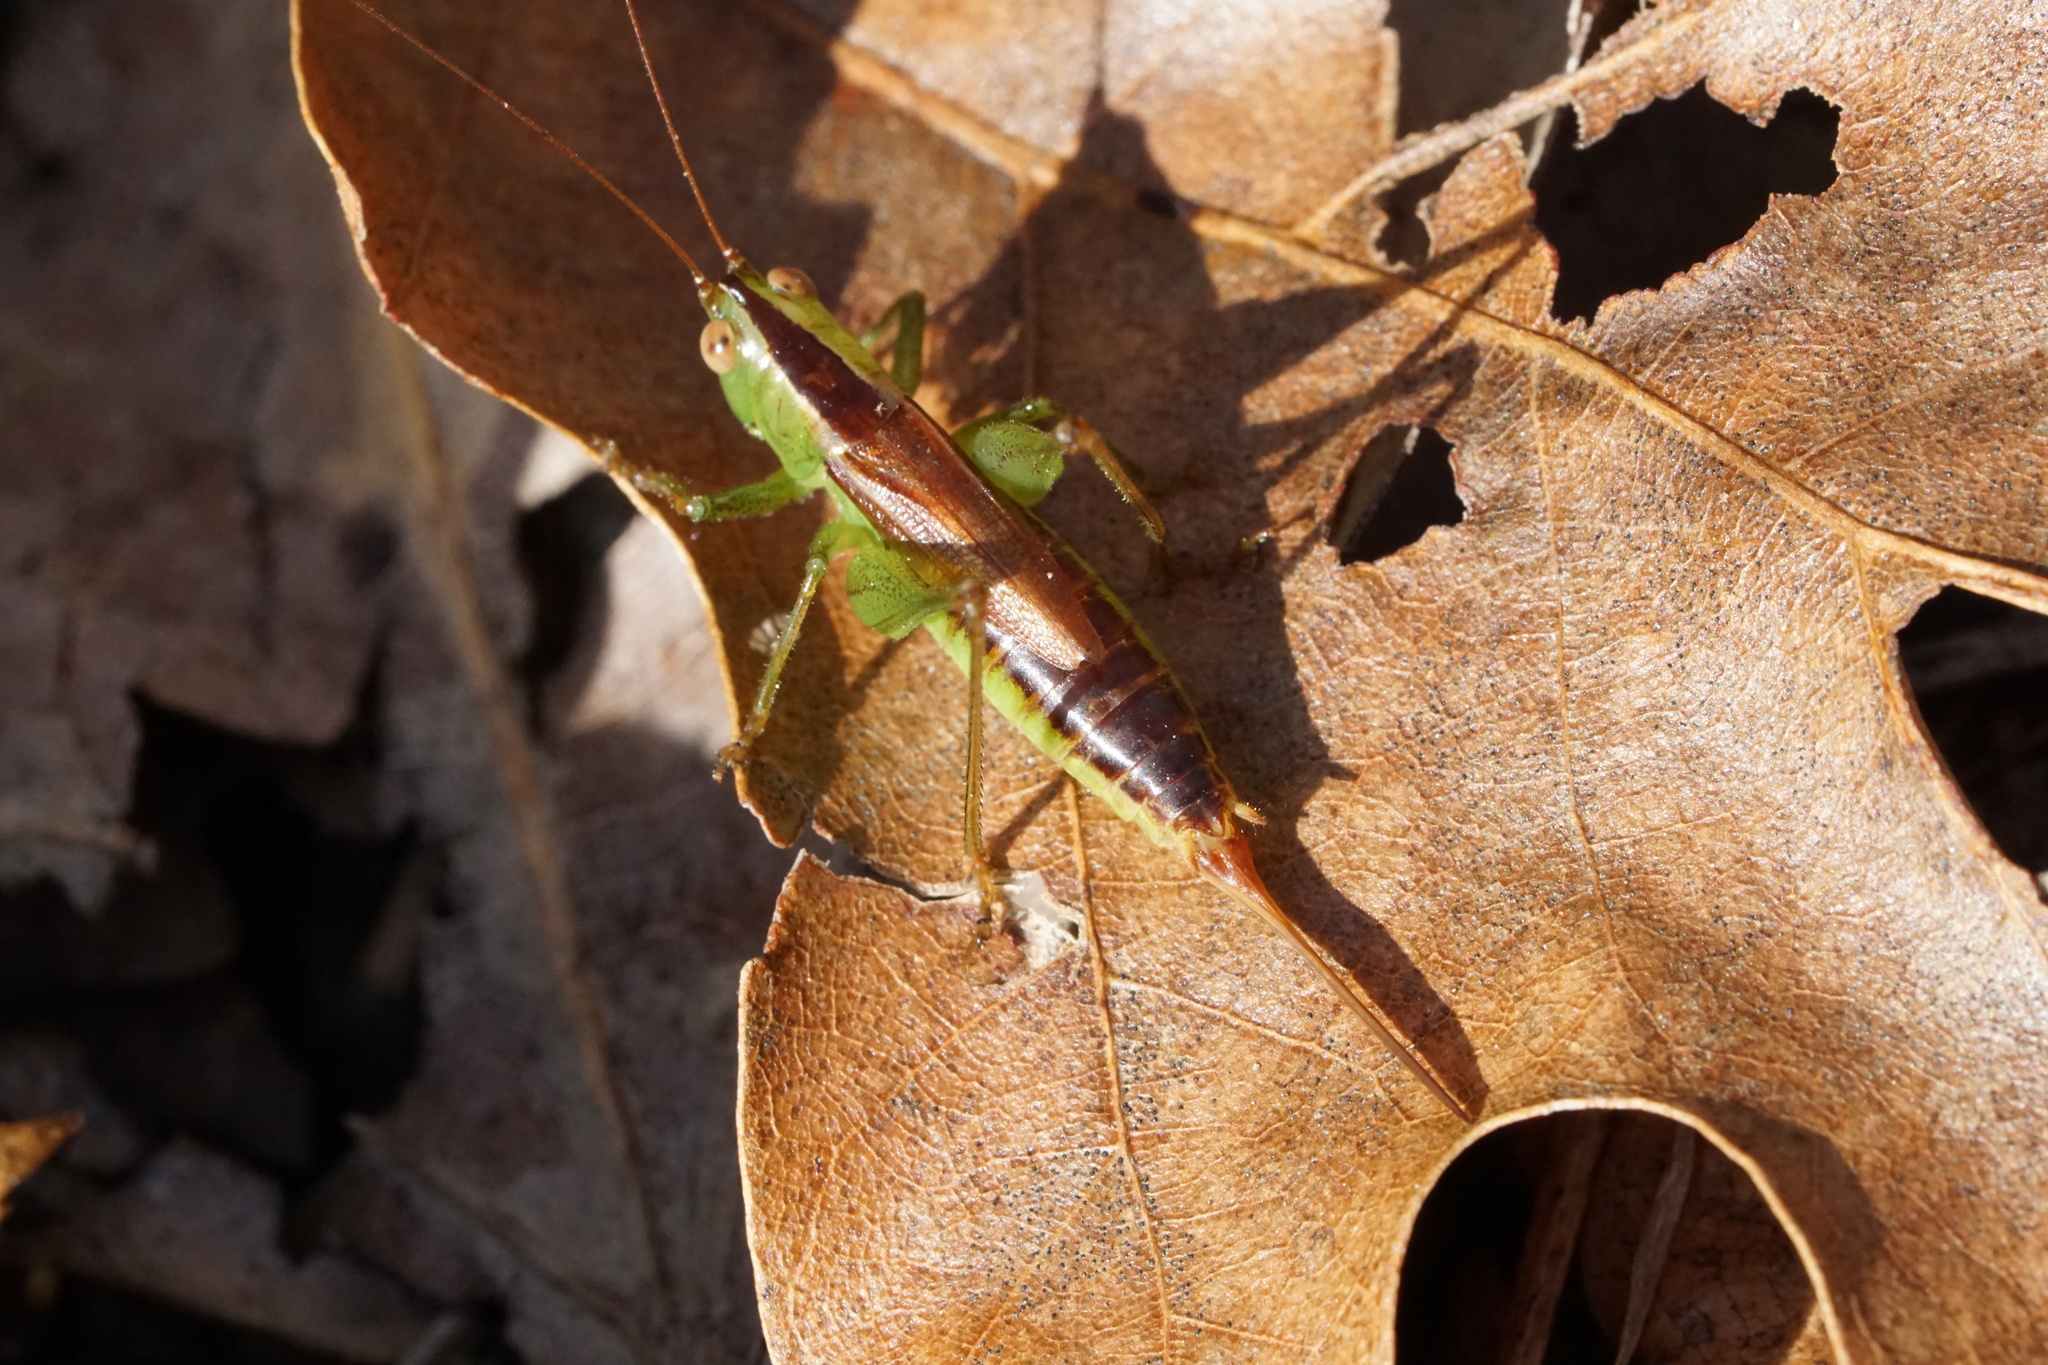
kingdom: Animalia
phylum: Arthropoda
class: Insecta
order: Orthoptera
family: Tettigoniidae
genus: Conocephalus
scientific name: Conocephalus brevipennis
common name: Short-winged meadow katydid
